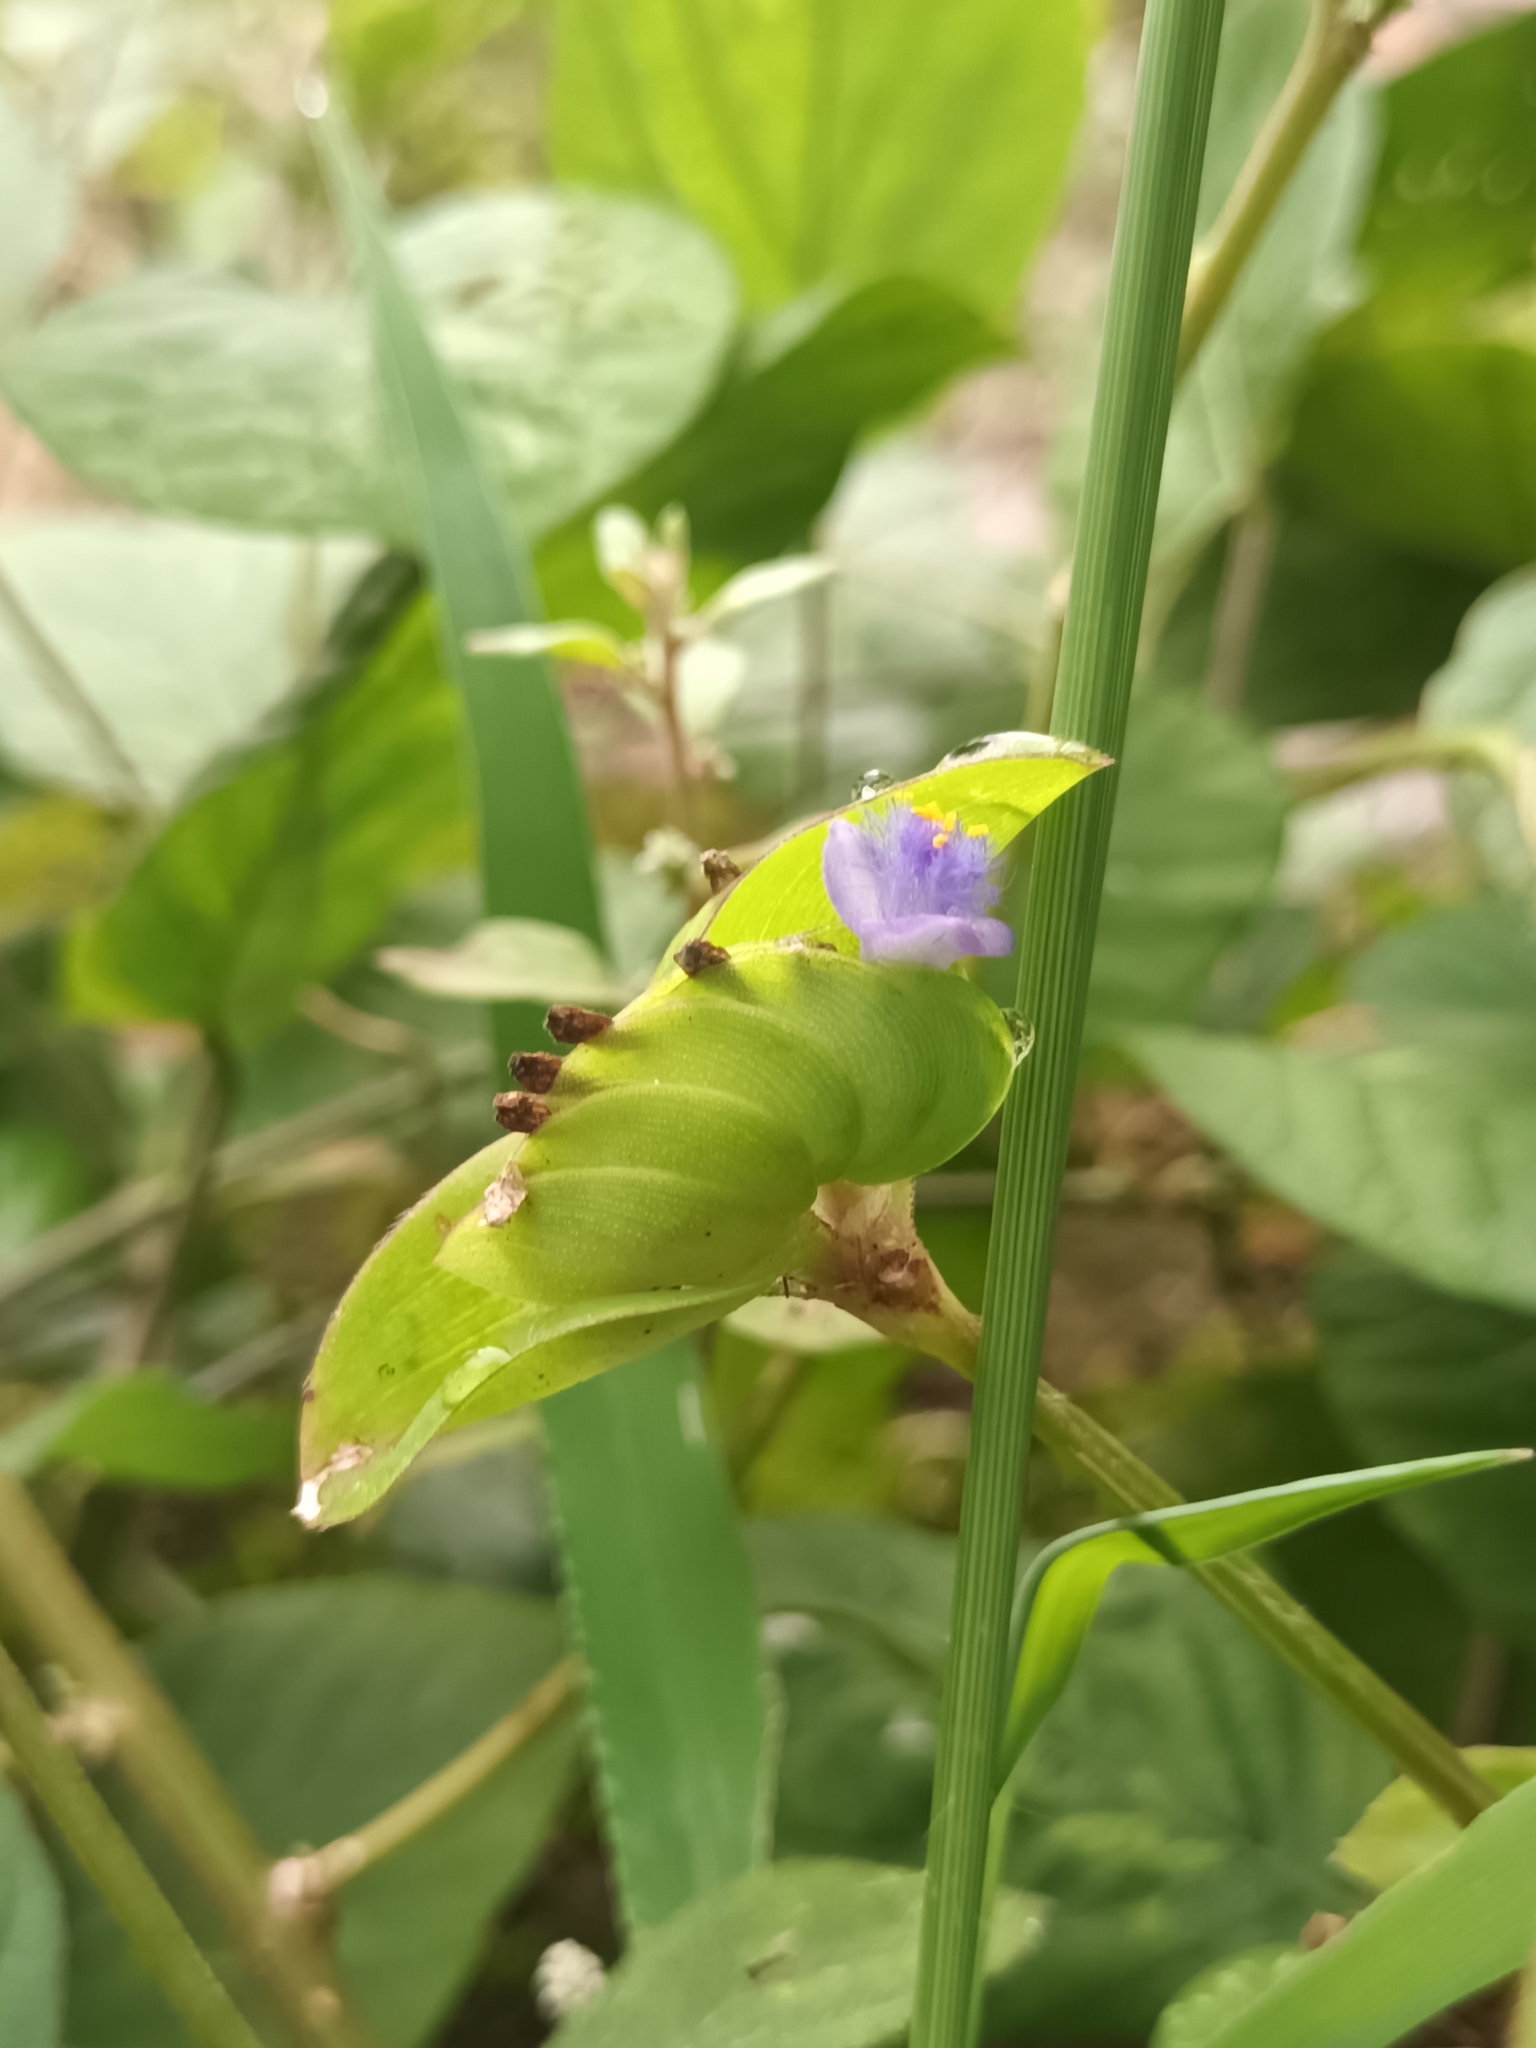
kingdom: Plantae
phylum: Tracheophyta
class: Liliopsida
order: Commelinales
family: Commelinaceae
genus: Cyanotis
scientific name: Cyanotis cristata
